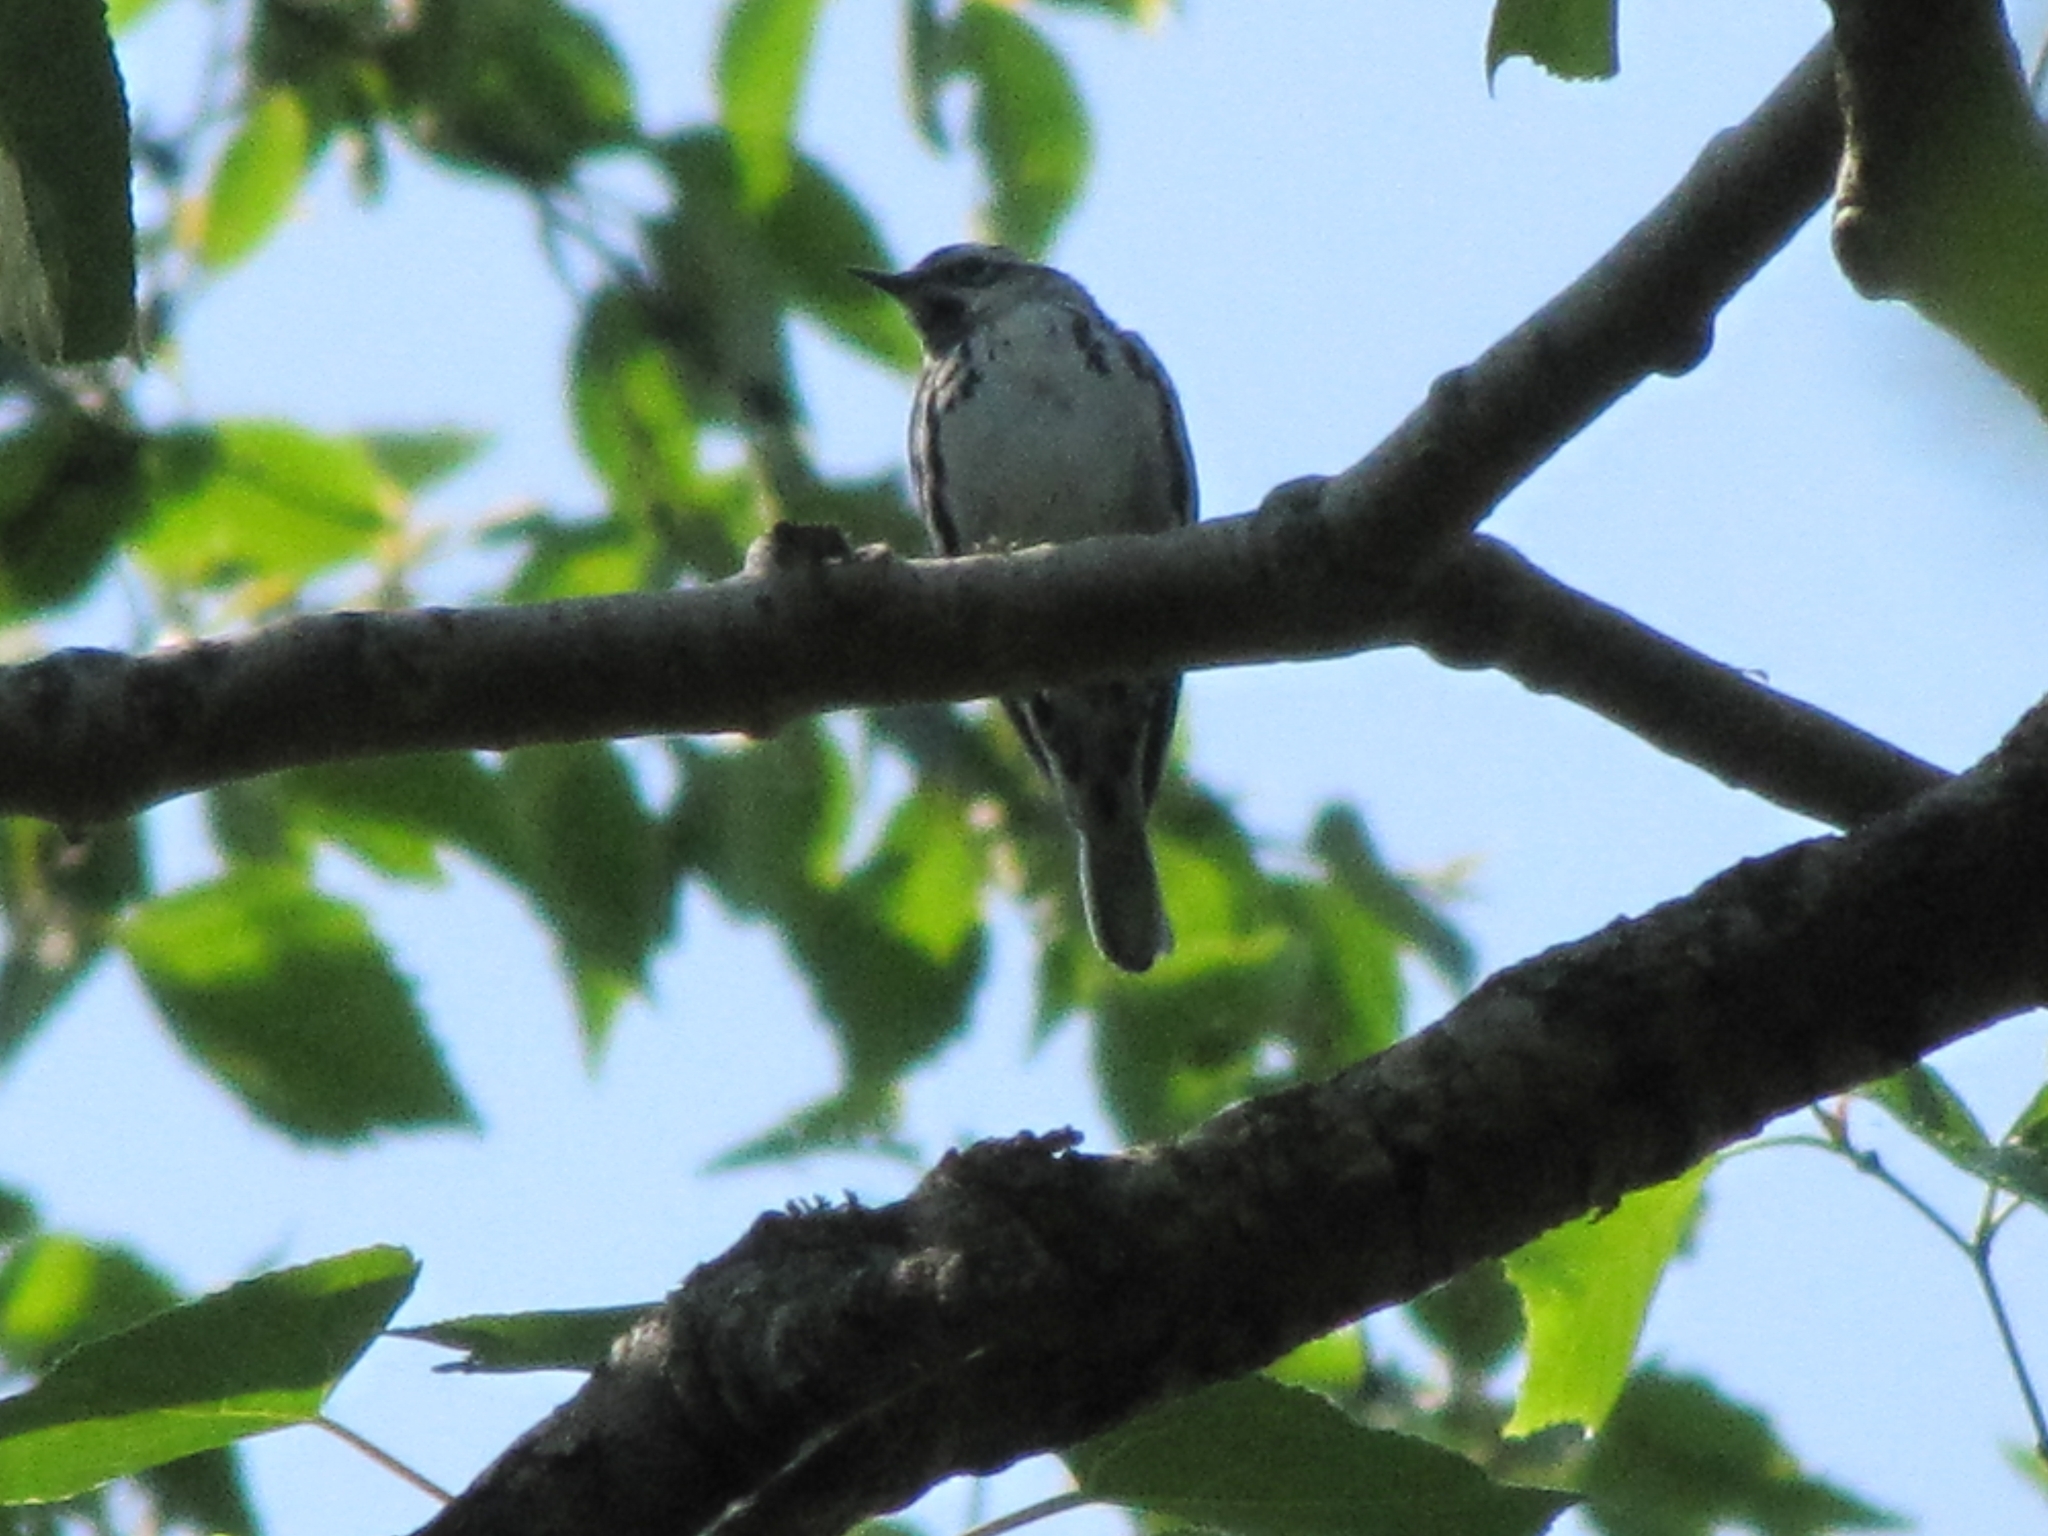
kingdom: Animalia
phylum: Chordata
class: Aves
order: Passeriformes
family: Parulidae
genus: Mniotilta
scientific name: Mniotilta varia
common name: Black-and-white warbler
